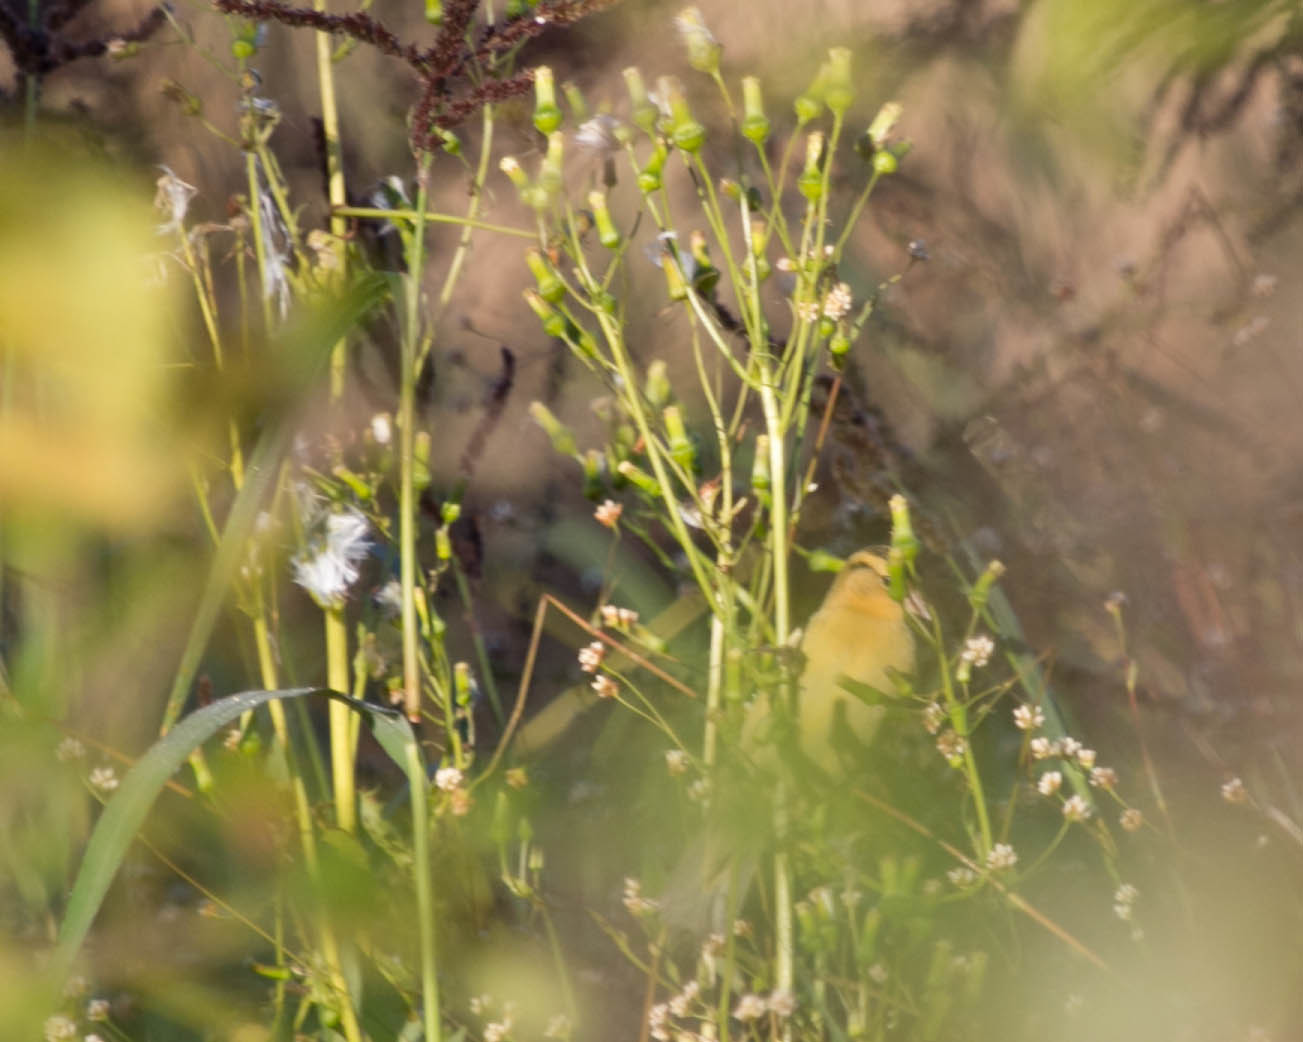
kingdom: Animalia
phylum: Chordata
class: Aves
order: Passeriformes
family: Icteridae
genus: Dolichonyx
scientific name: Dolichonyx oryzivorus
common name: Bobolink
